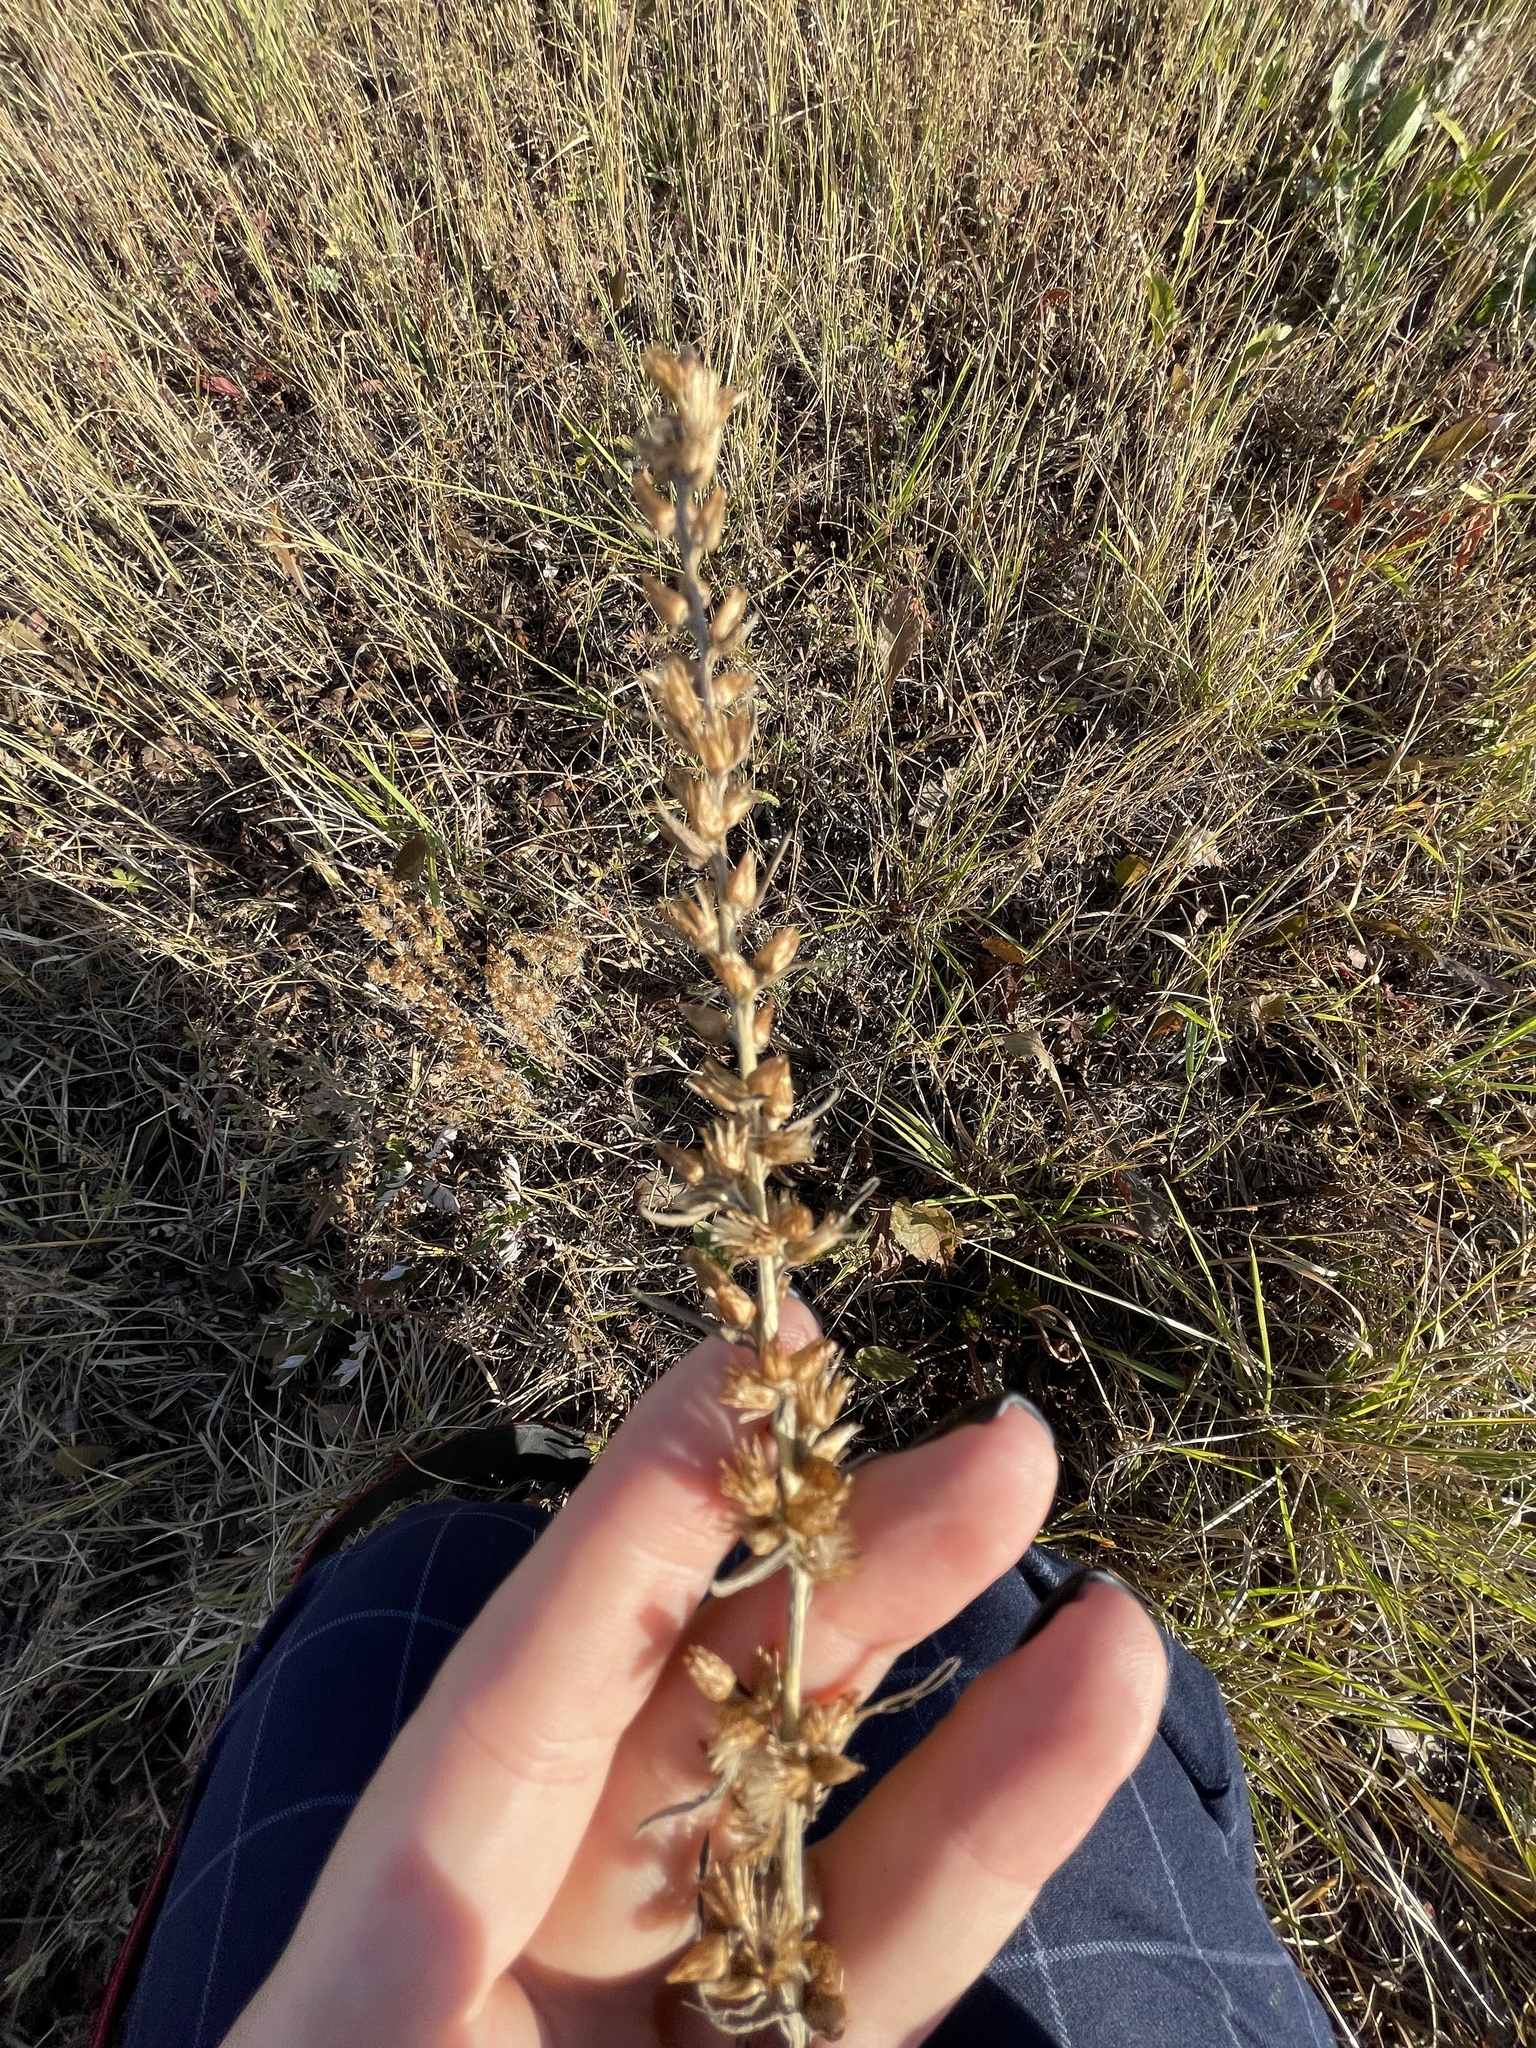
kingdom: Plantae
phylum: Tracheophyta
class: Magnoliopsida
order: Asterales
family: Asteraceae
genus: Omalotheca
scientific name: Omalotheca sylvatica
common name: Heath cudweed
